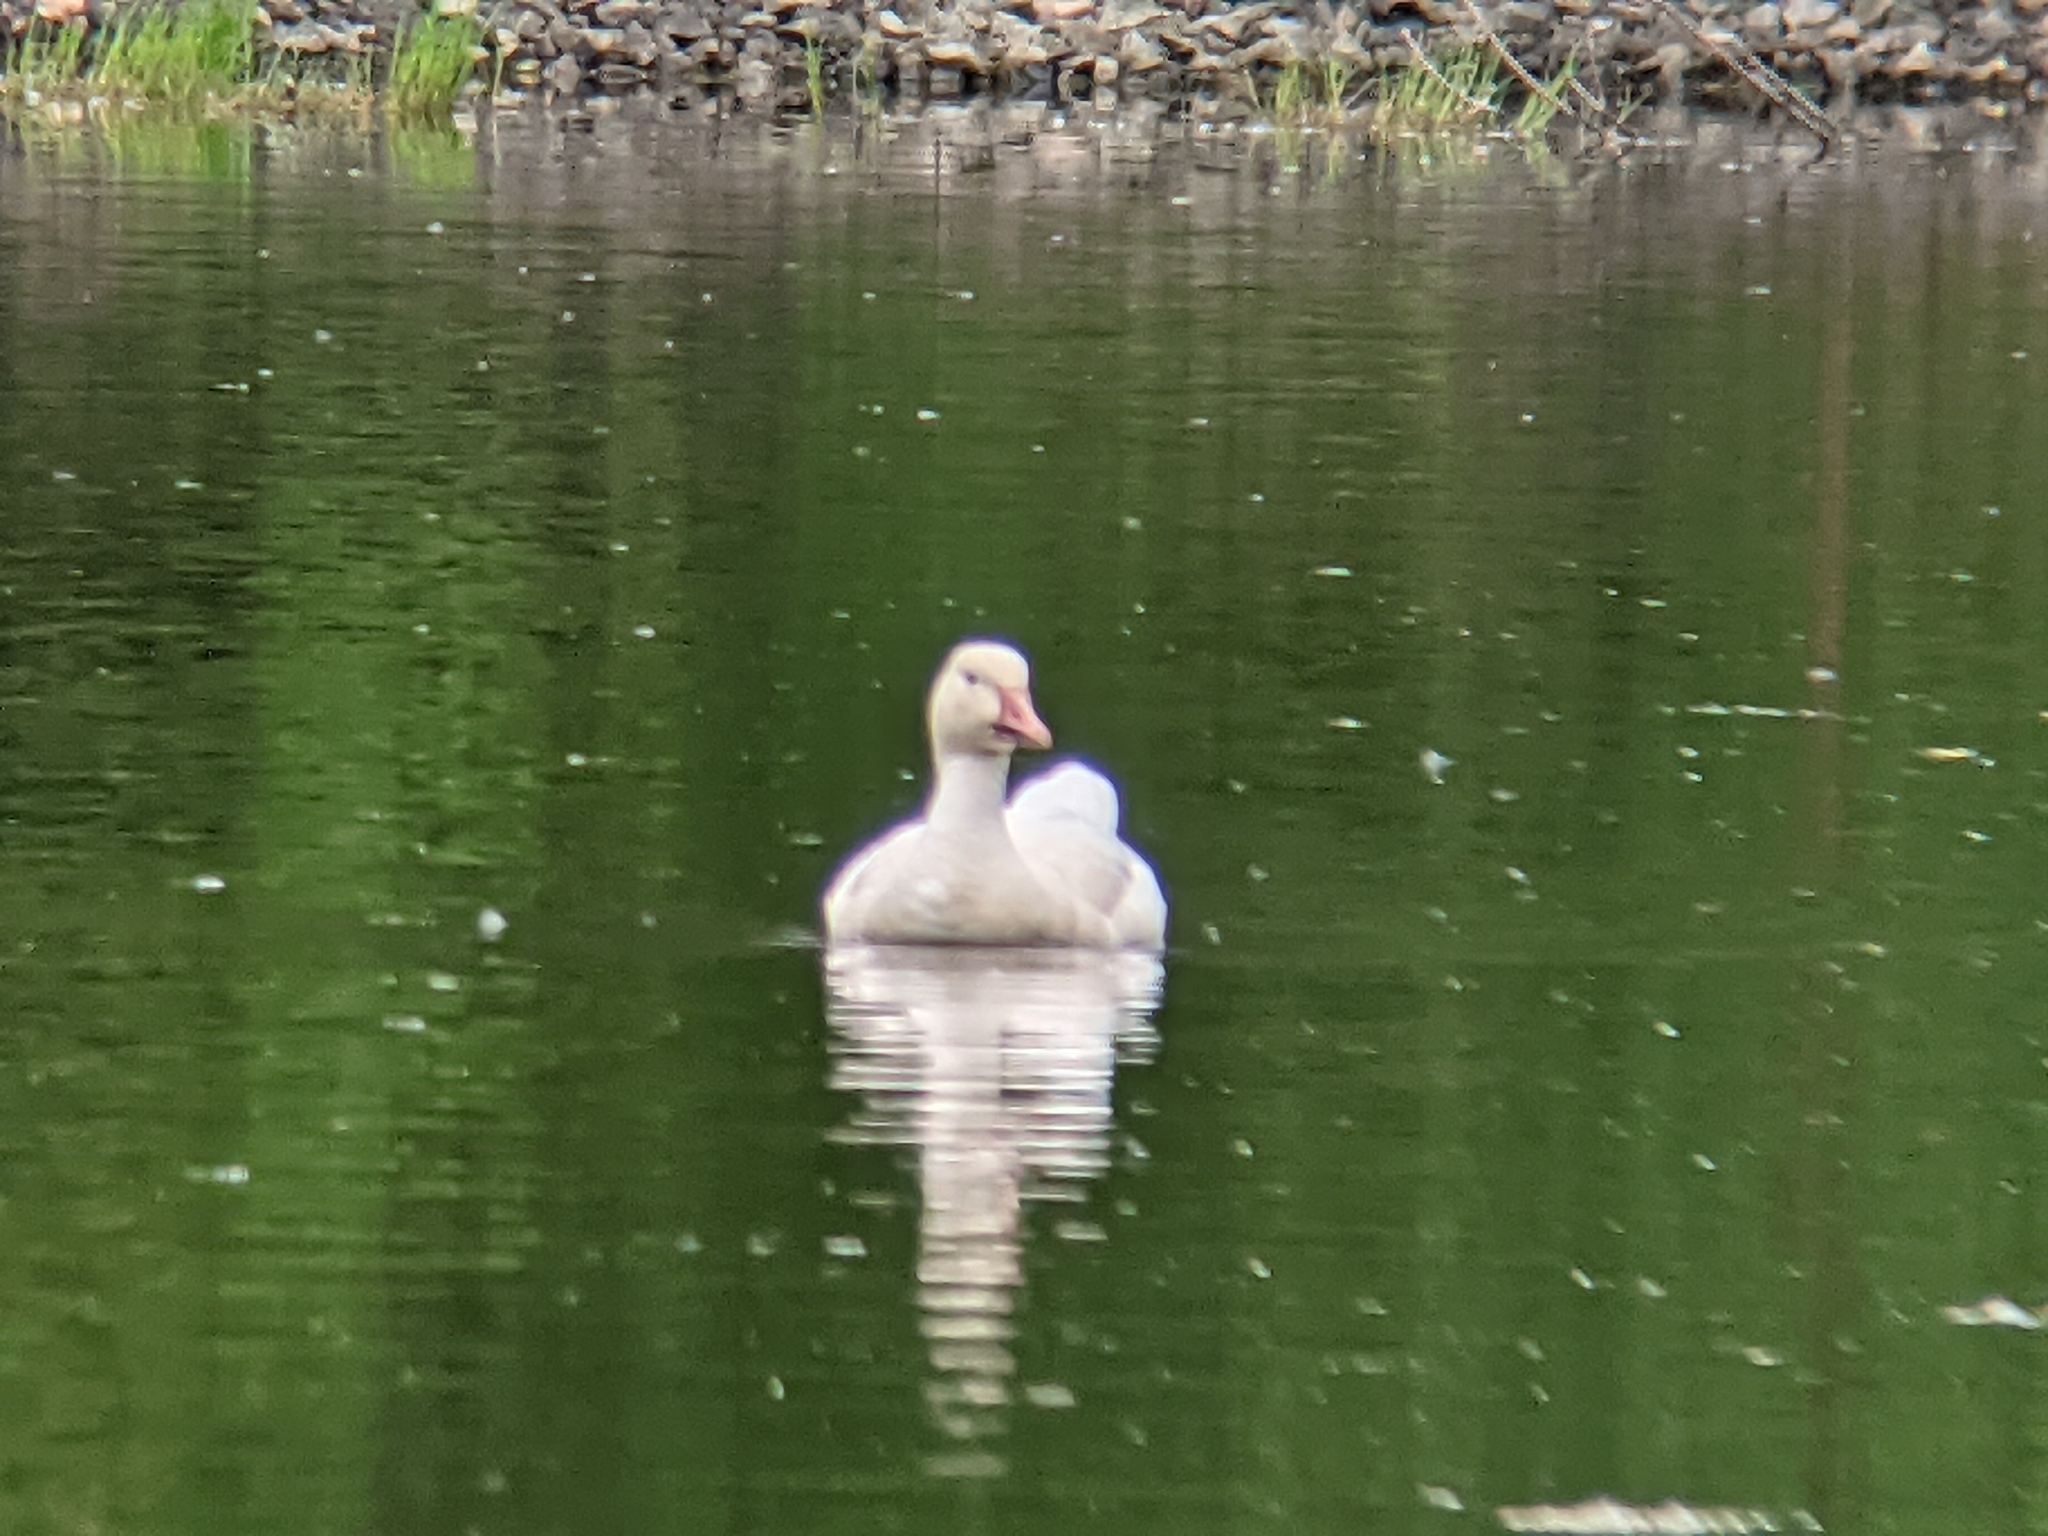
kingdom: Animalia
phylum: Chordata
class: Aves
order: Anseriformes
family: Anatidae
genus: Anser
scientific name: Anser caerulescens
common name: Snow goose
